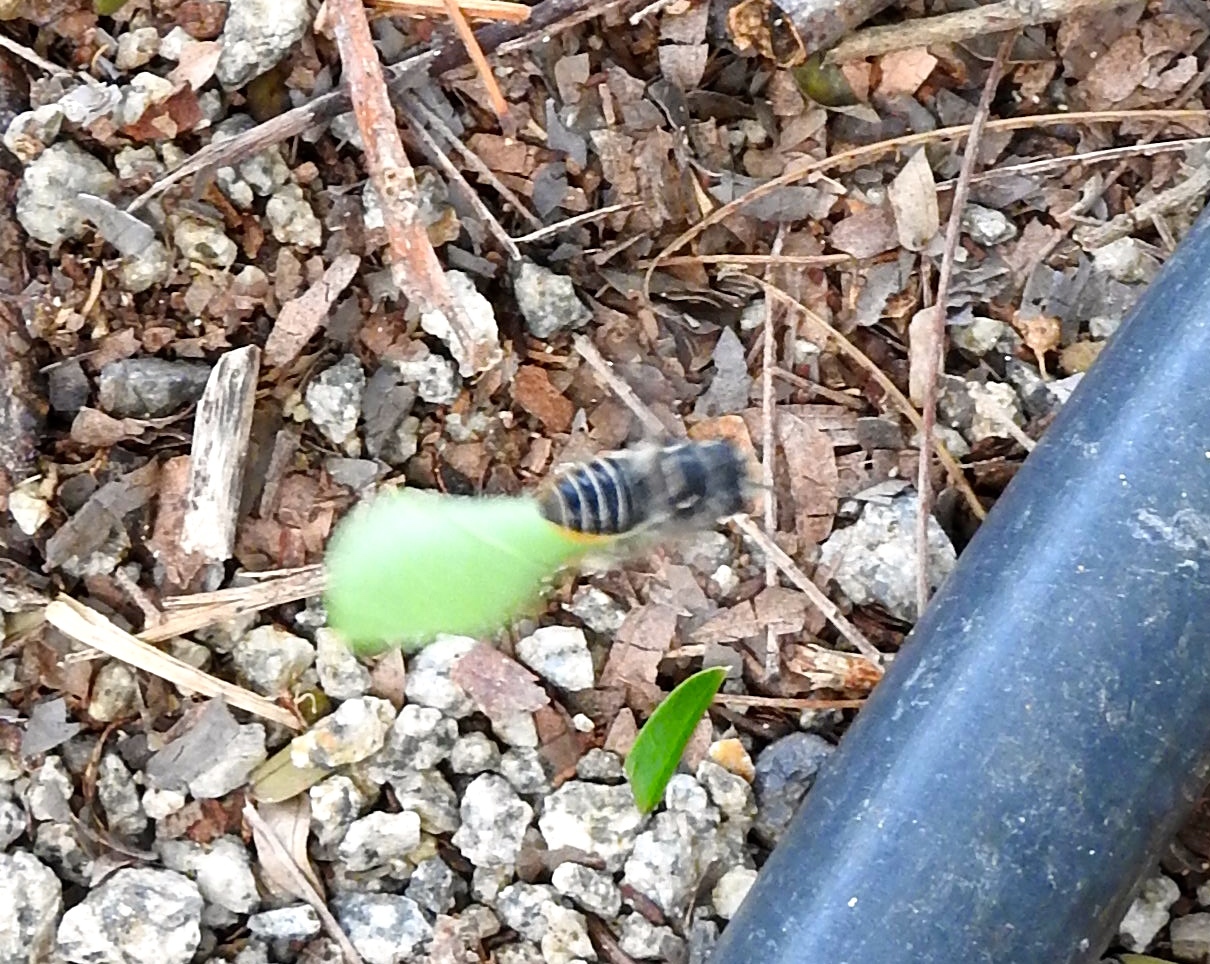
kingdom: Animalia
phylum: Arthropoda
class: Insecta
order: Hymenoptera
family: Megachilidae
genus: Megachile
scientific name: Megachile
